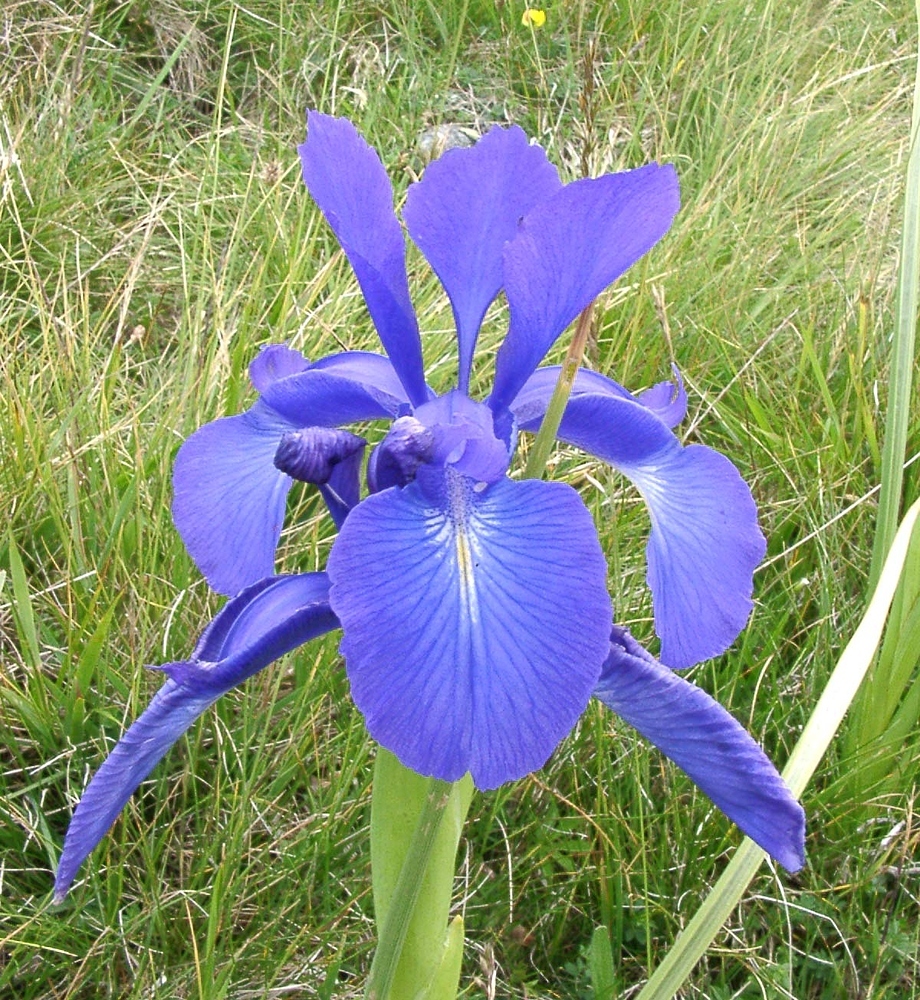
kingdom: Plantae
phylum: Tracheophyta
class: Liliopsida
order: Asparagales
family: Iridaceae
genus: Iris
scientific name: Iris
